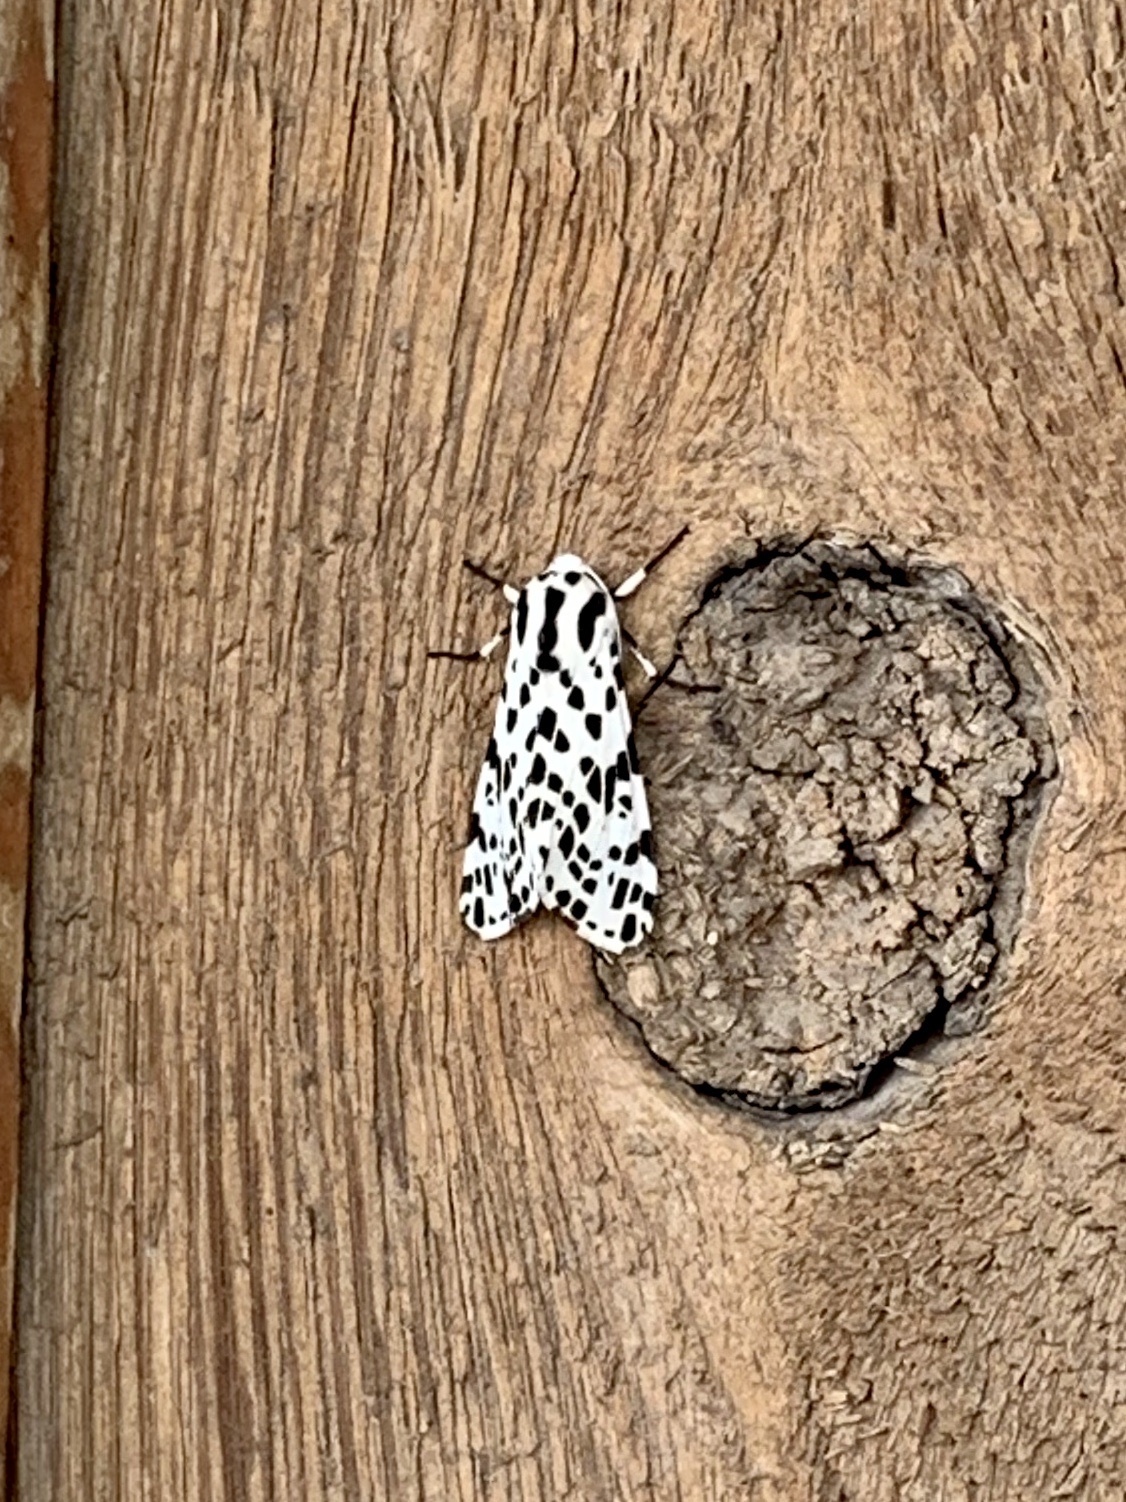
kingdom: Animalia
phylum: Arthropoda
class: Insecta
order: Lepidoptera
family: Erebidae
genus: Hypercompe
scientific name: Hypercompe permaculata
